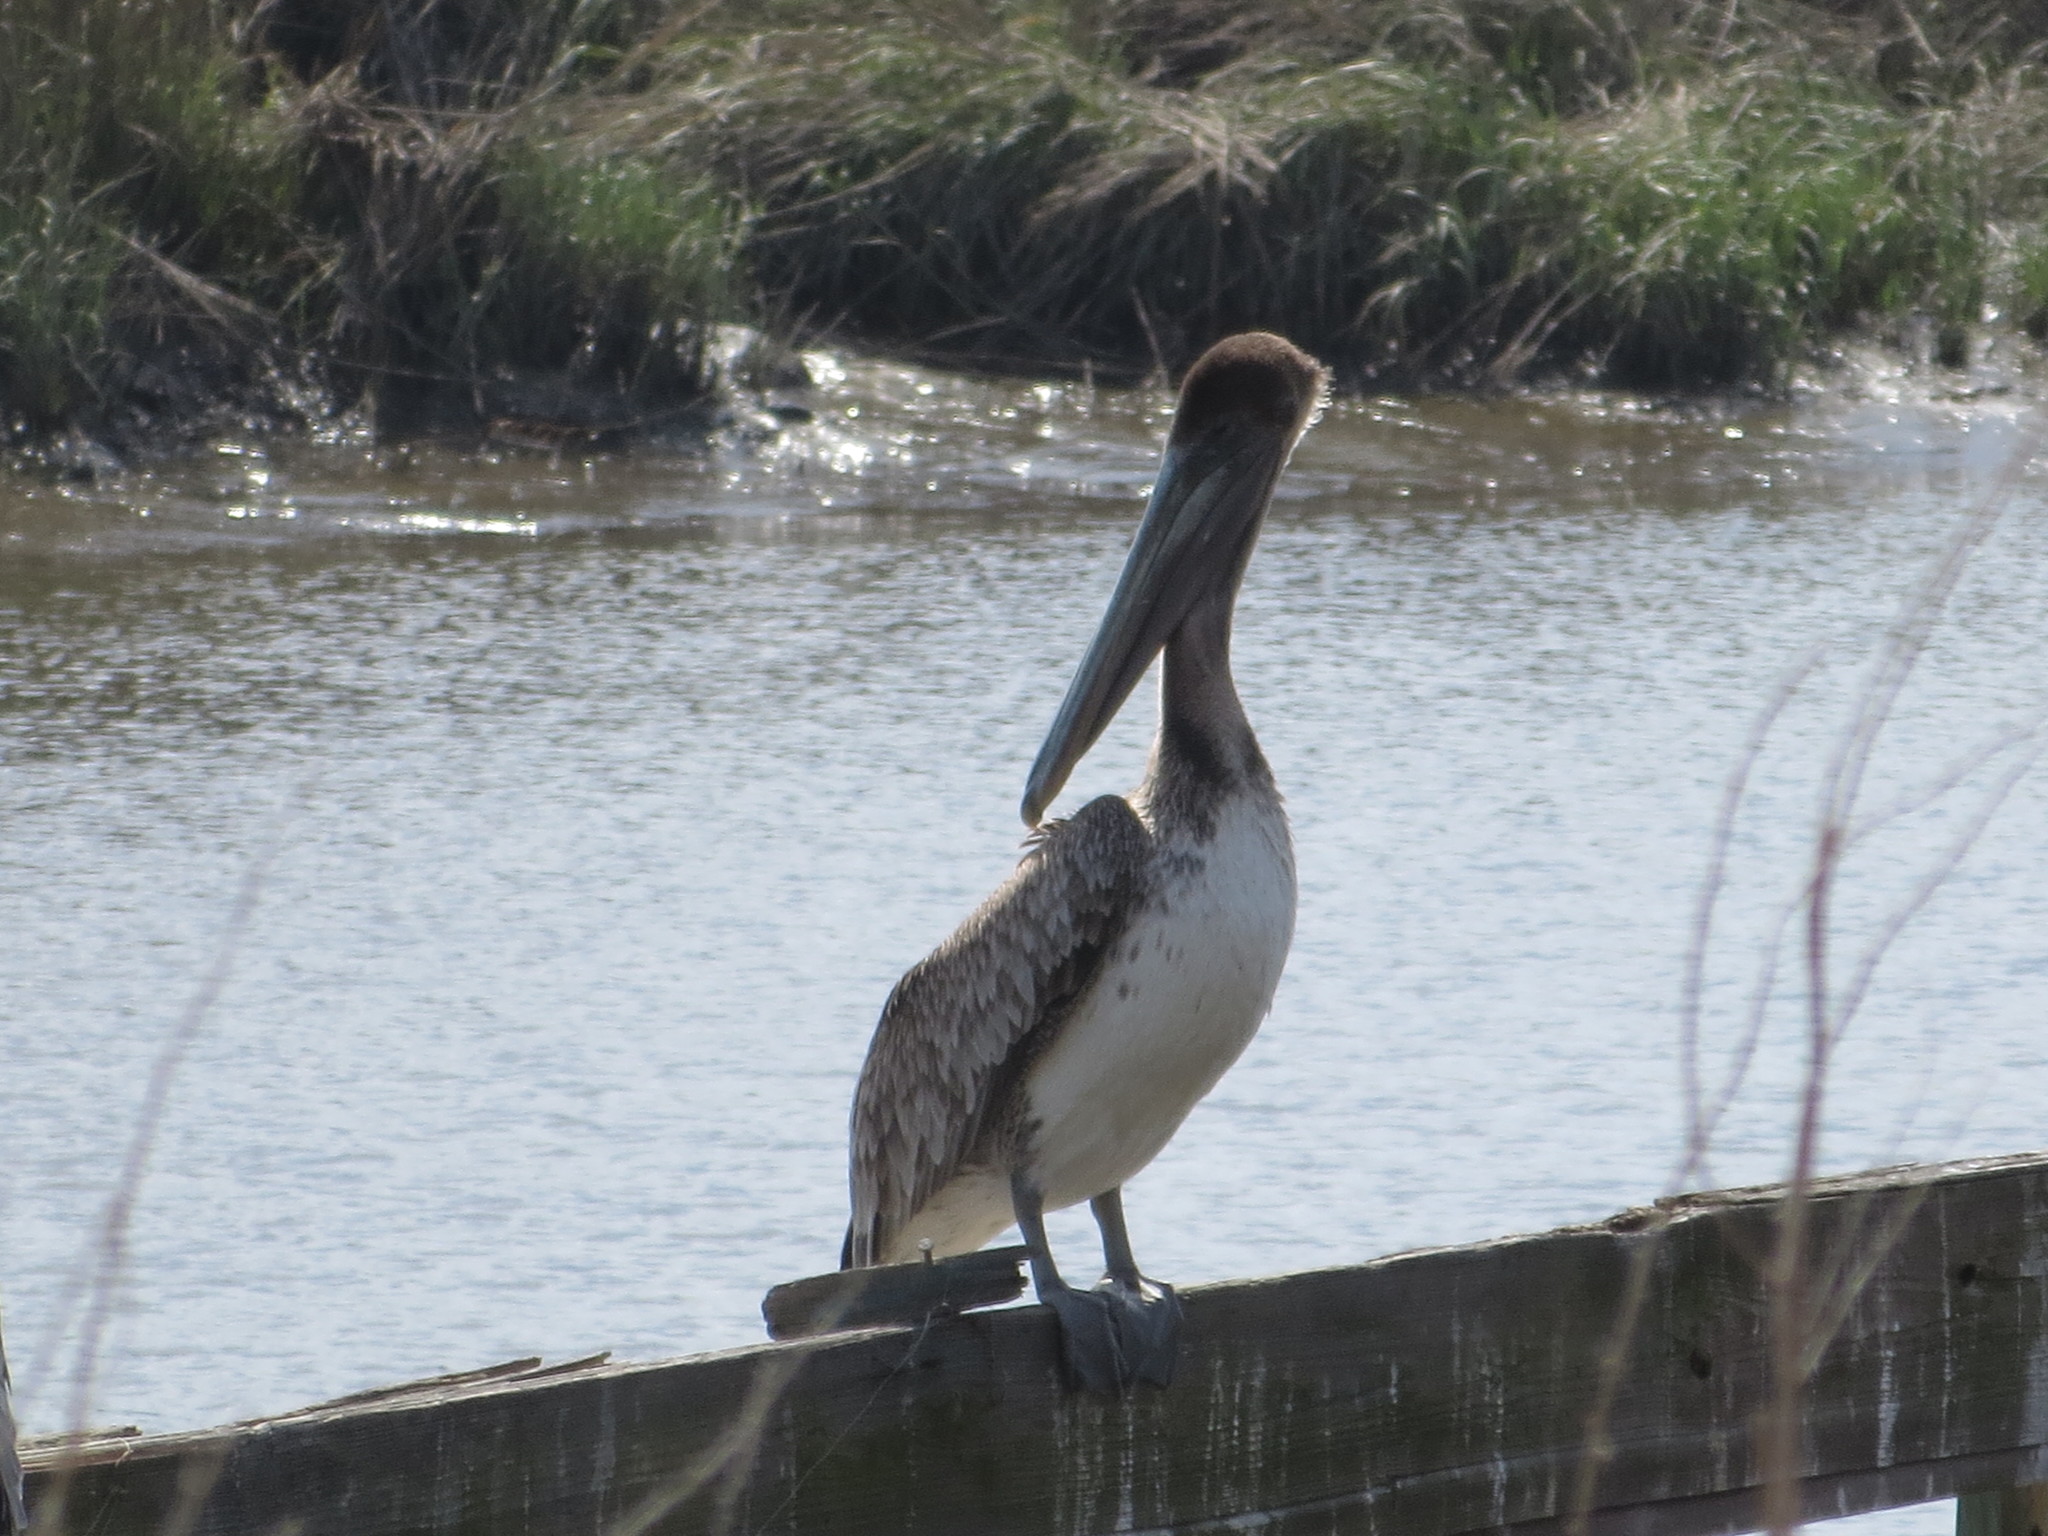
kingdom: Animalia
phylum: Chordata
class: Aves
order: Pelecaniformes
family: Pelecanidae
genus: Pelecanus
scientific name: Pelecanus occidentalis
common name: Brown pelican
